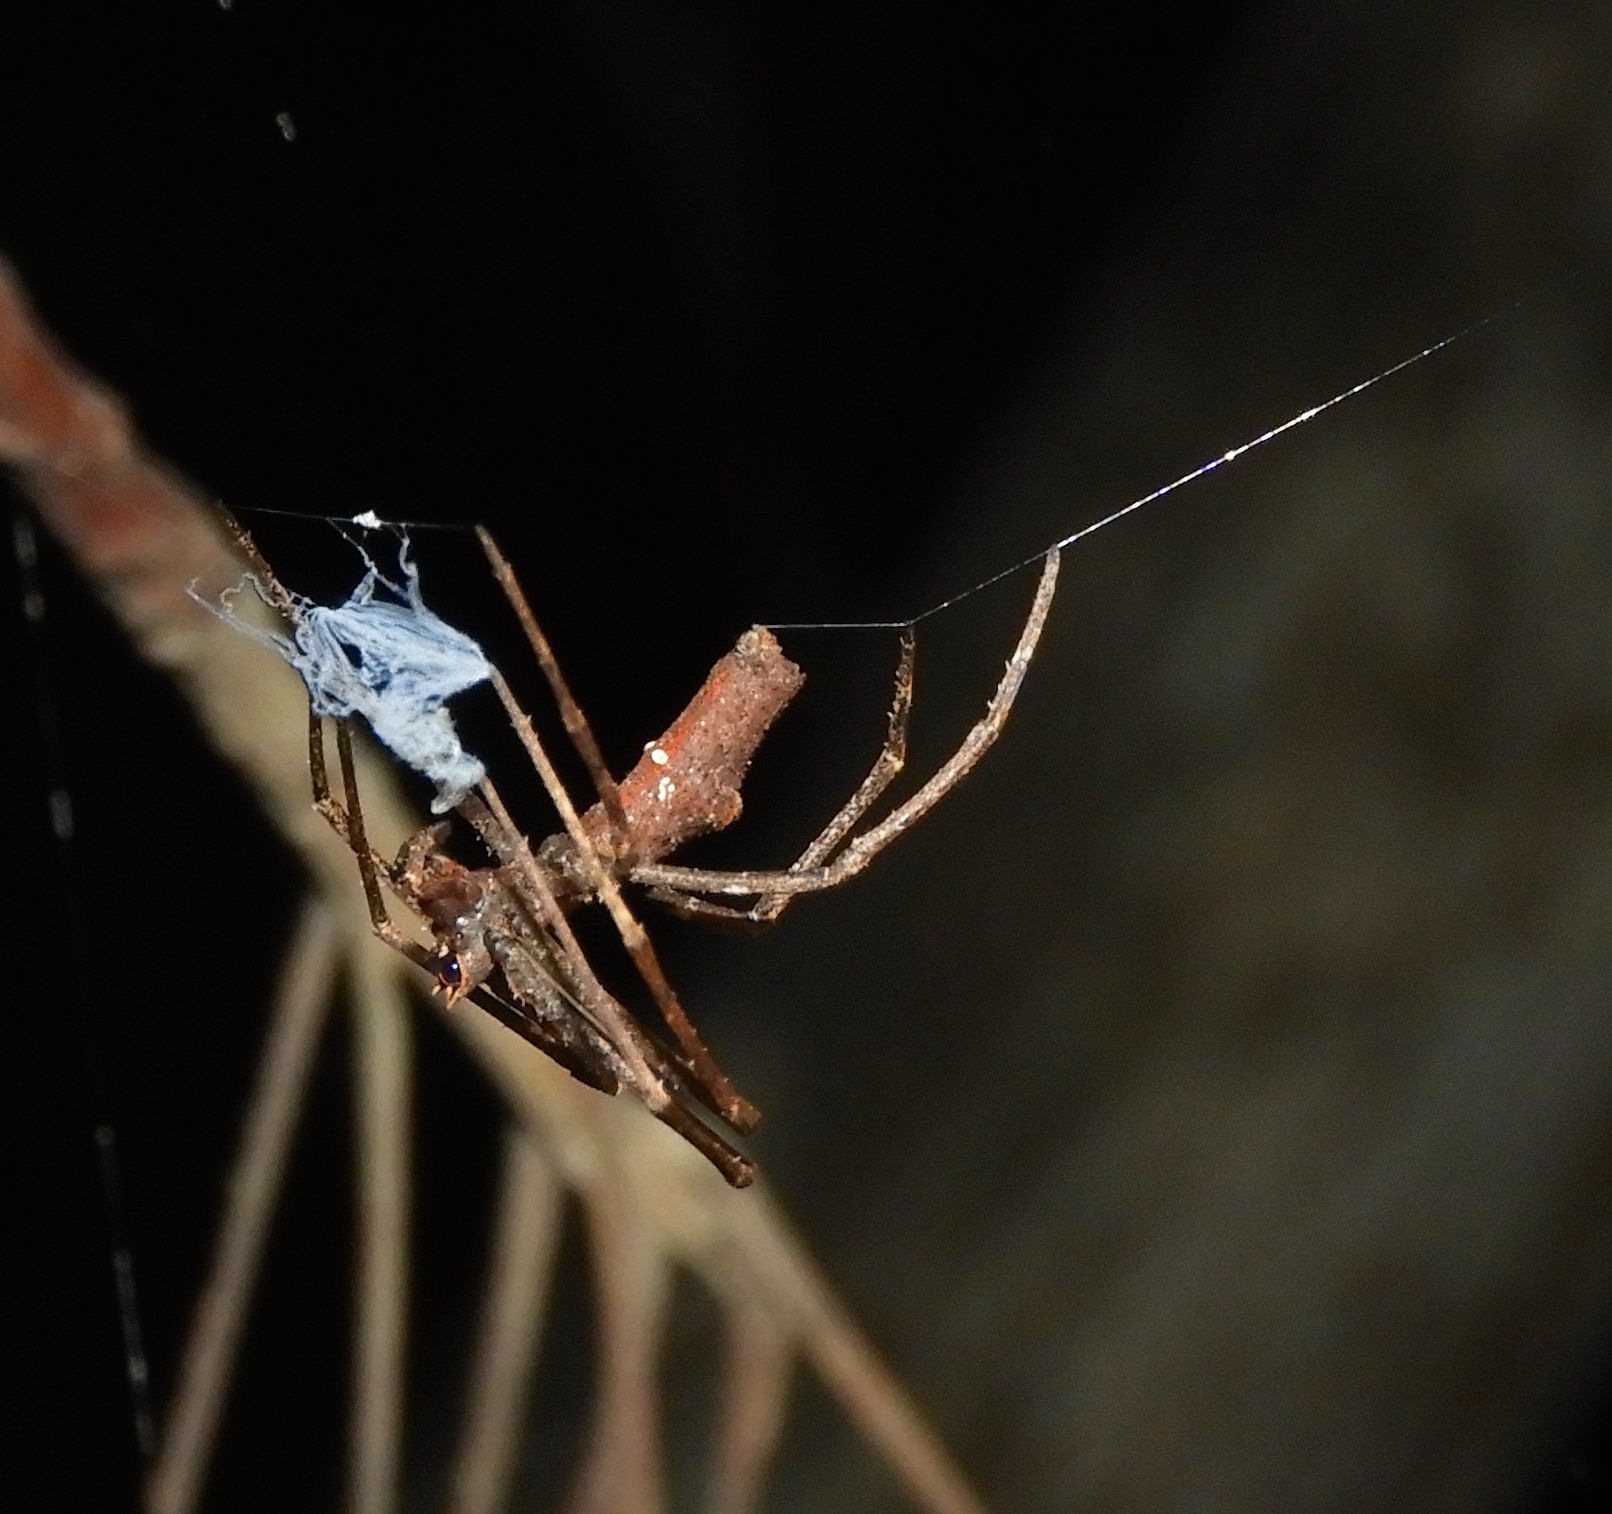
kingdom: Animalia
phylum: Arthropoda
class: Arachnida
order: Araneae
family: Deinopidae
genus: Deinopis
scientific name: Deinopis aurita
